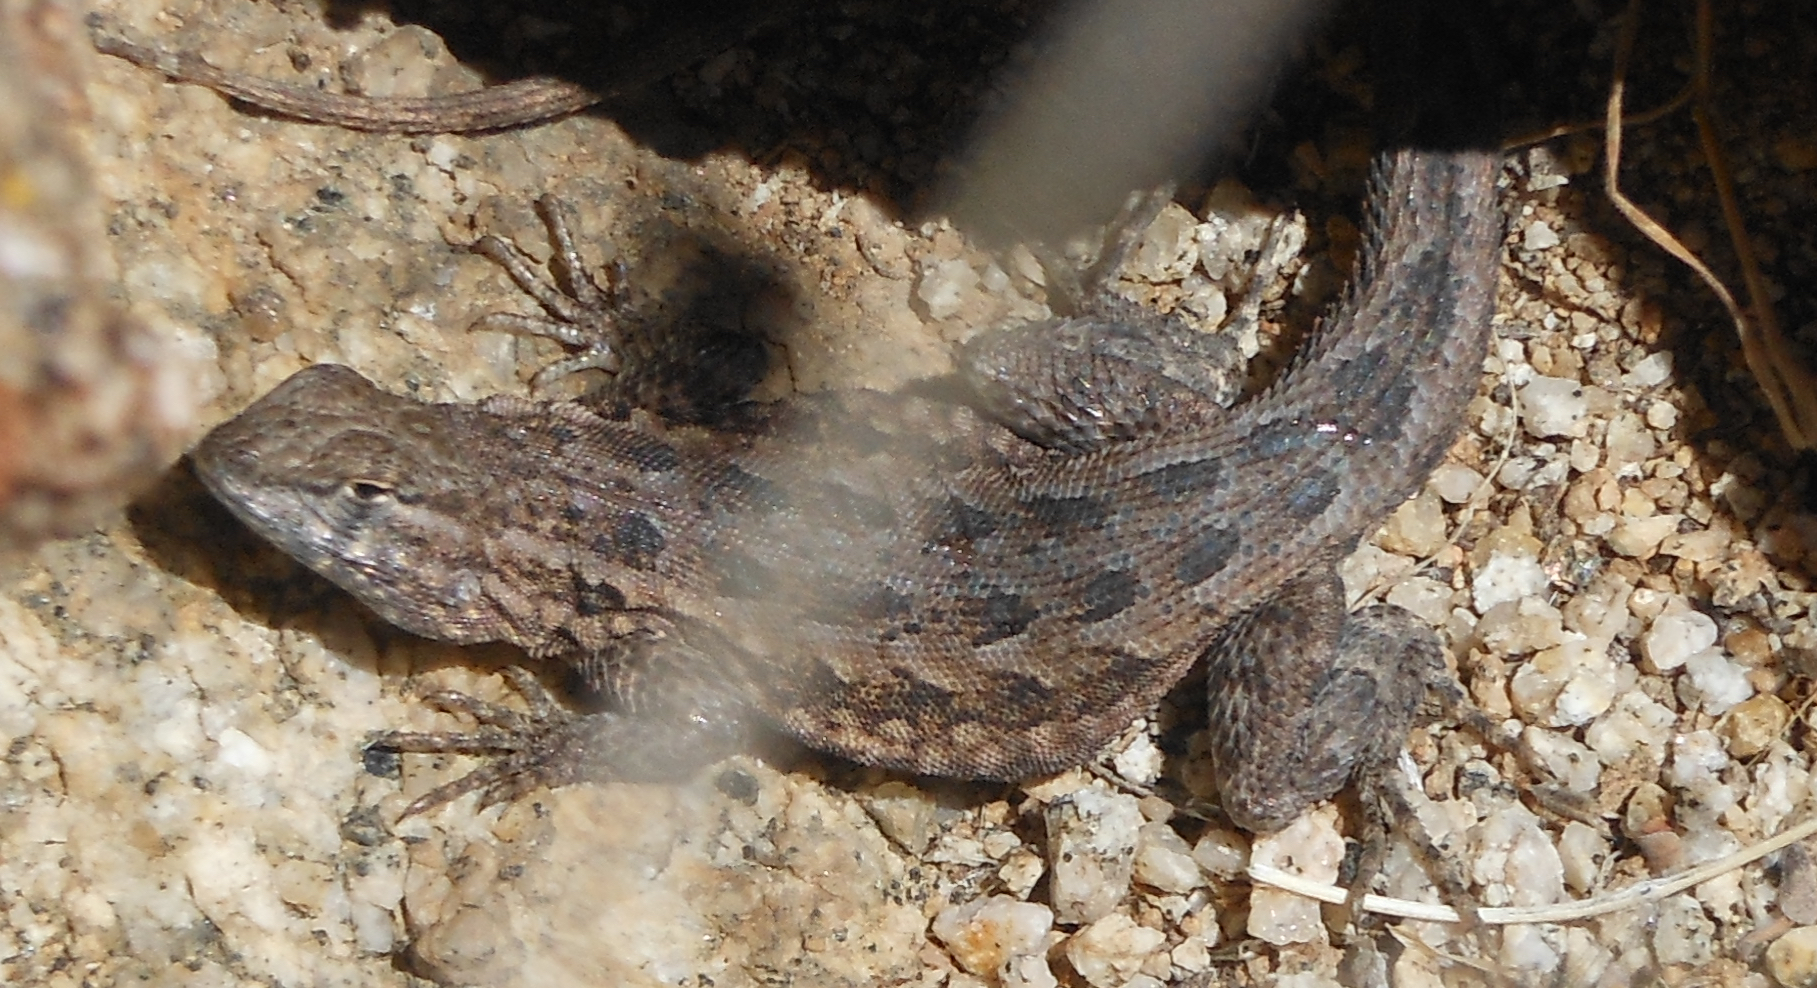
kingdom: Animalia
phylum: Chordata
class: Squamata
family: Phrynosomatidae
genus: Uta
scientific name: Uta stansburiana
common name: Side-blotched lizard
